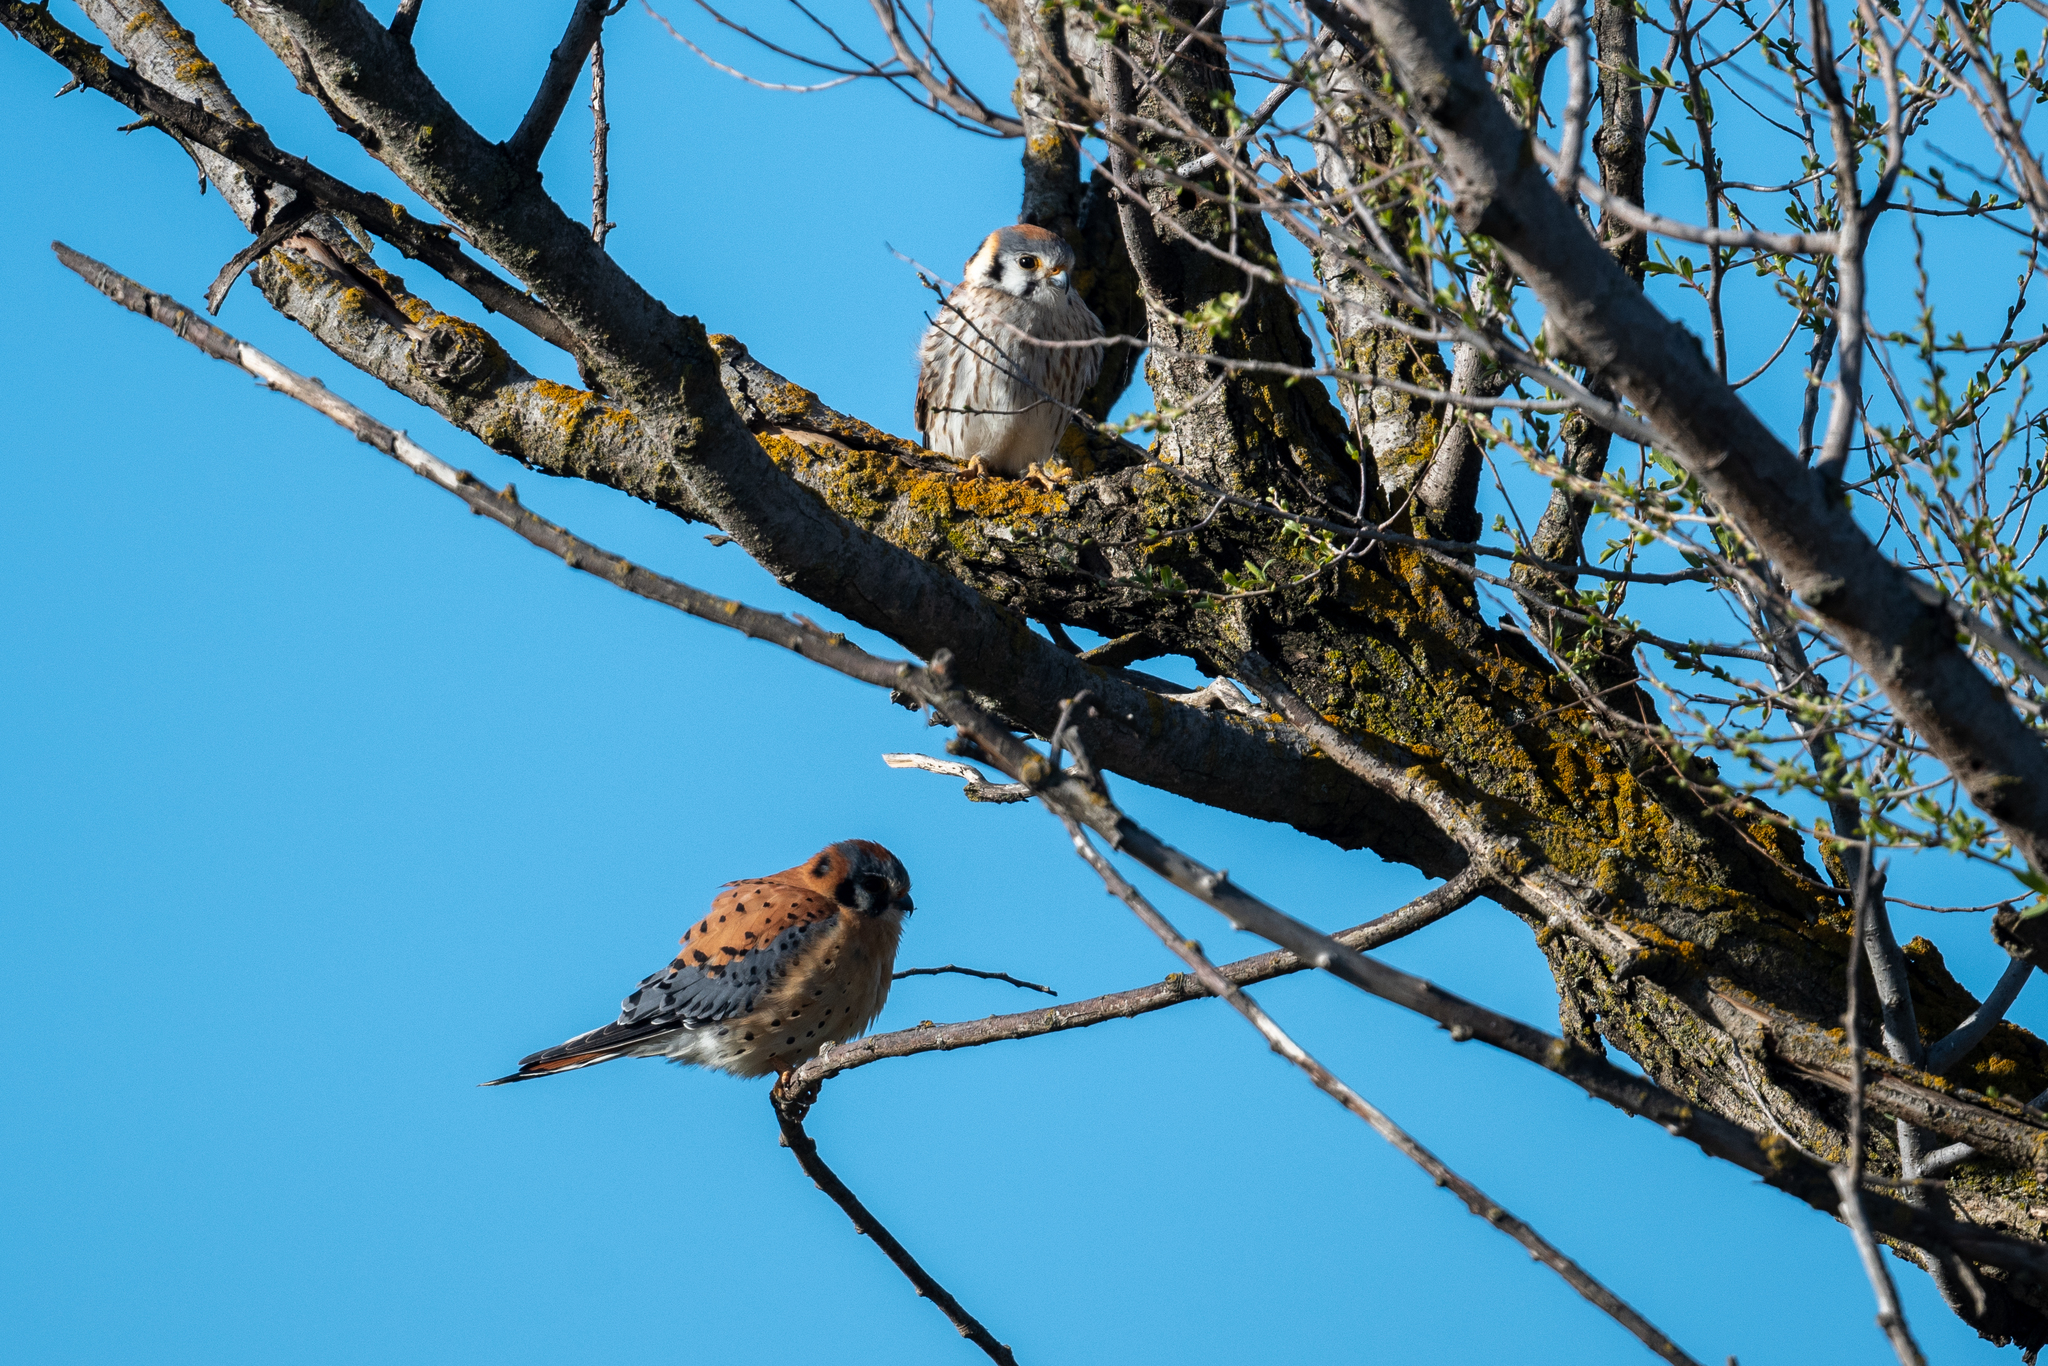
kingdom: Animalia
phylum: Chordata
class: Aves
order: Falconiformes
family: Falconidae
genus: Falco
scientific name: Falco sparverius
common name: American kestrel
